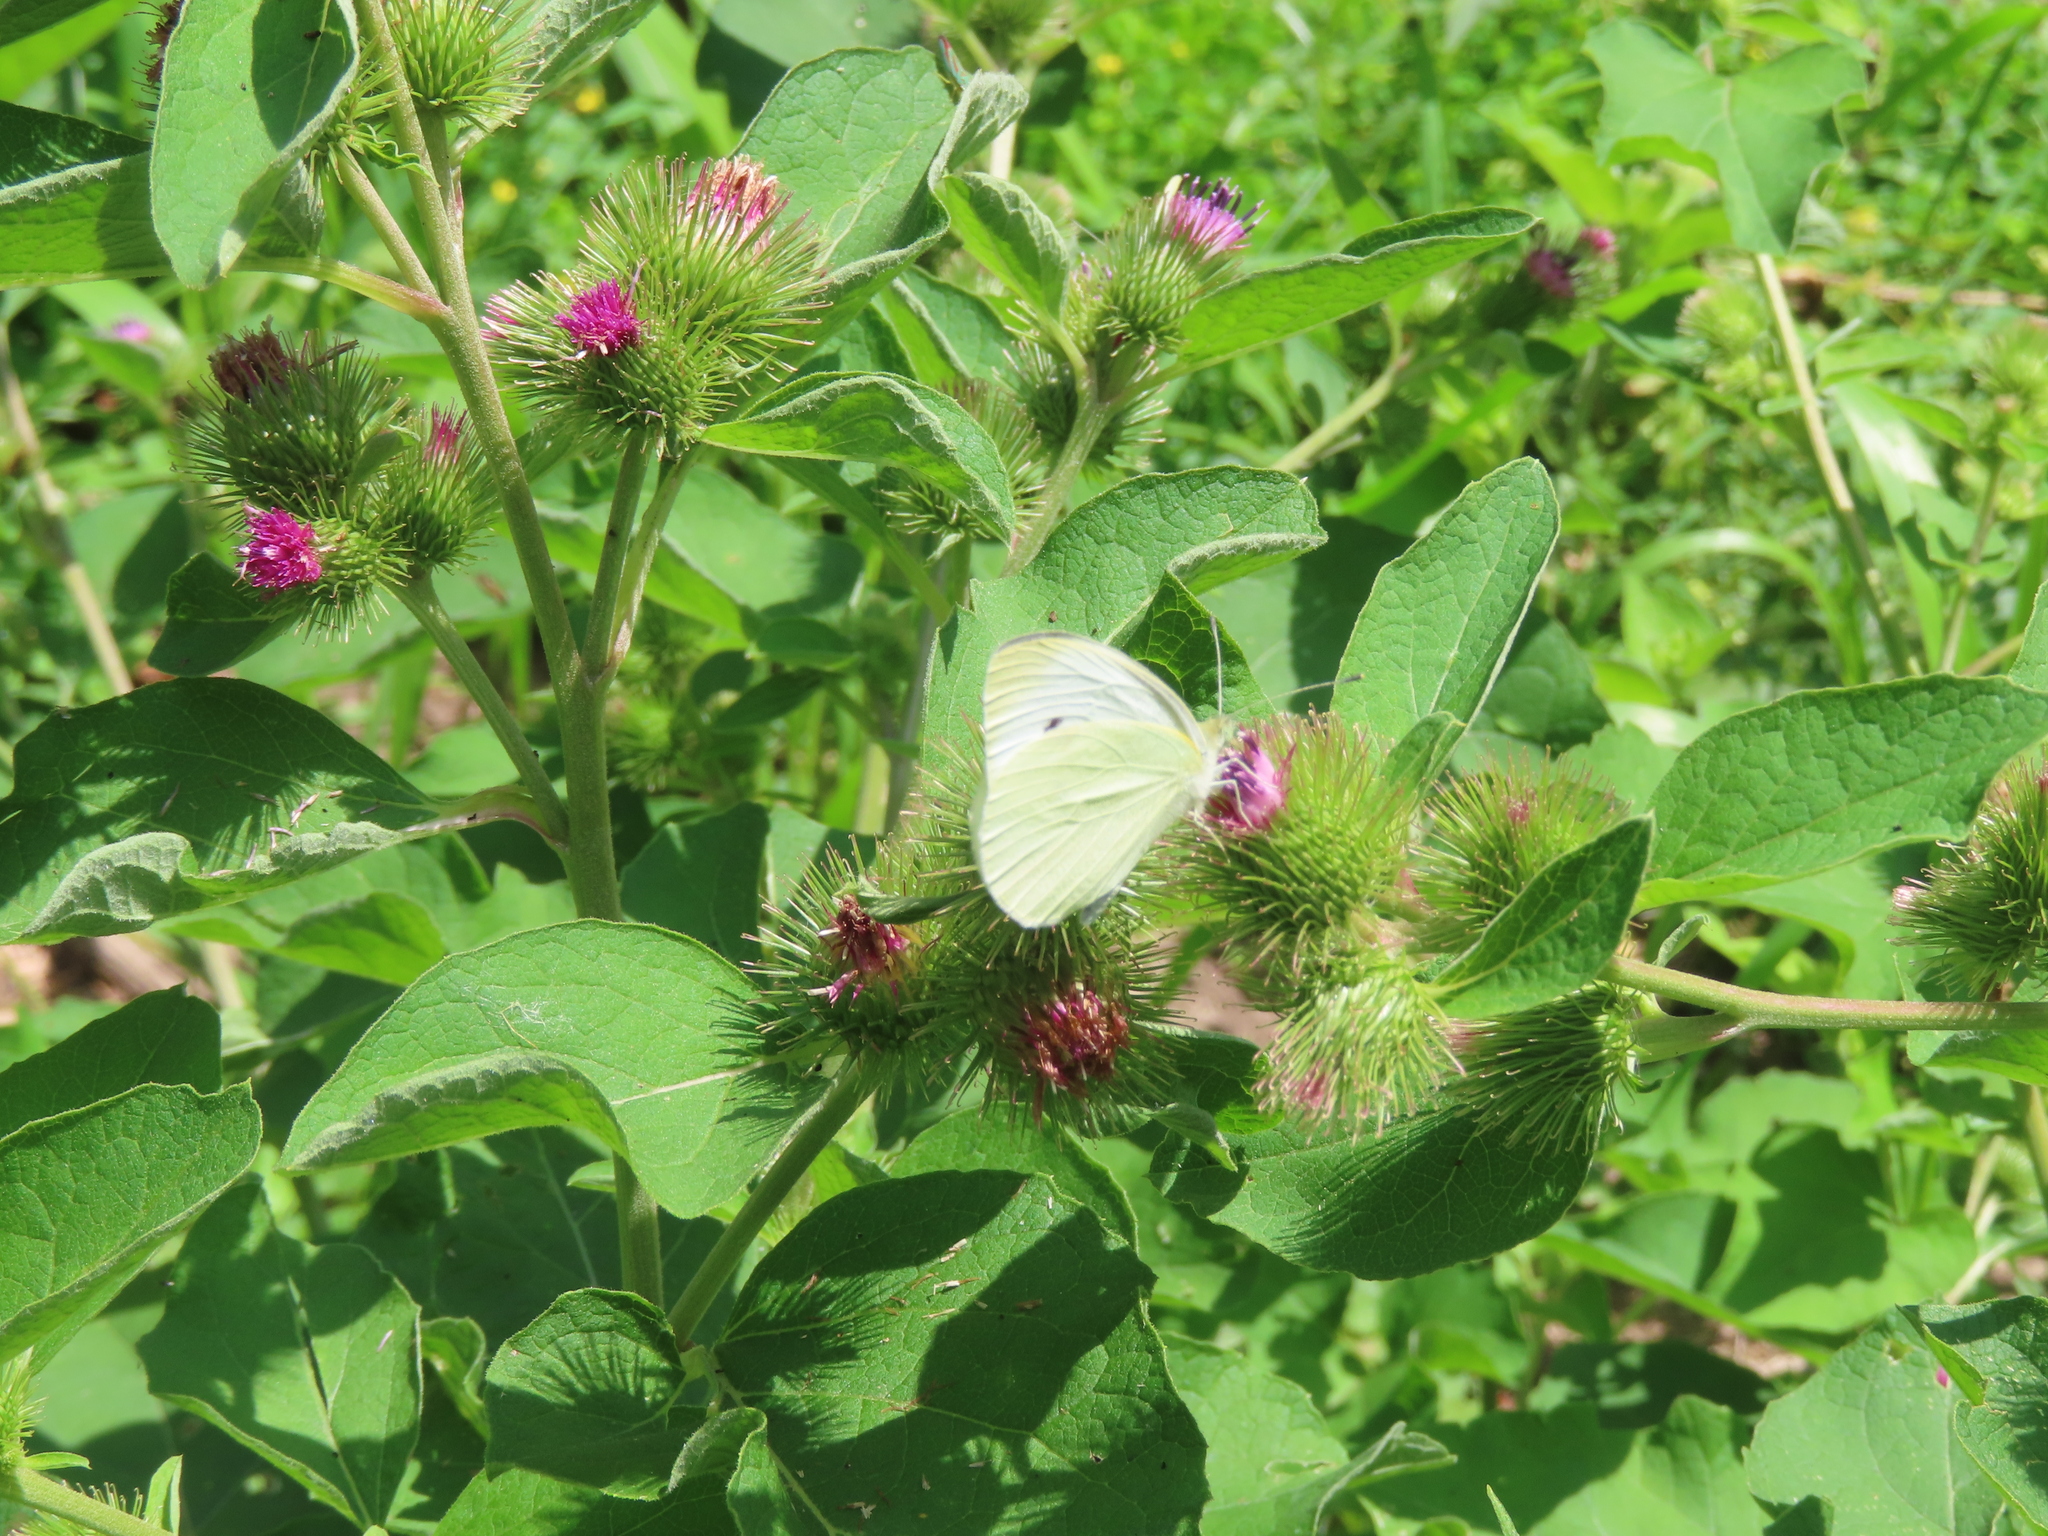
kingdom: Animalia
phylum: Arthropoda
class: Insecta
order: Lepidoptera
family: Pieridae
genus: Pieris
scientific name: Pieris rapae
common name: Small white
